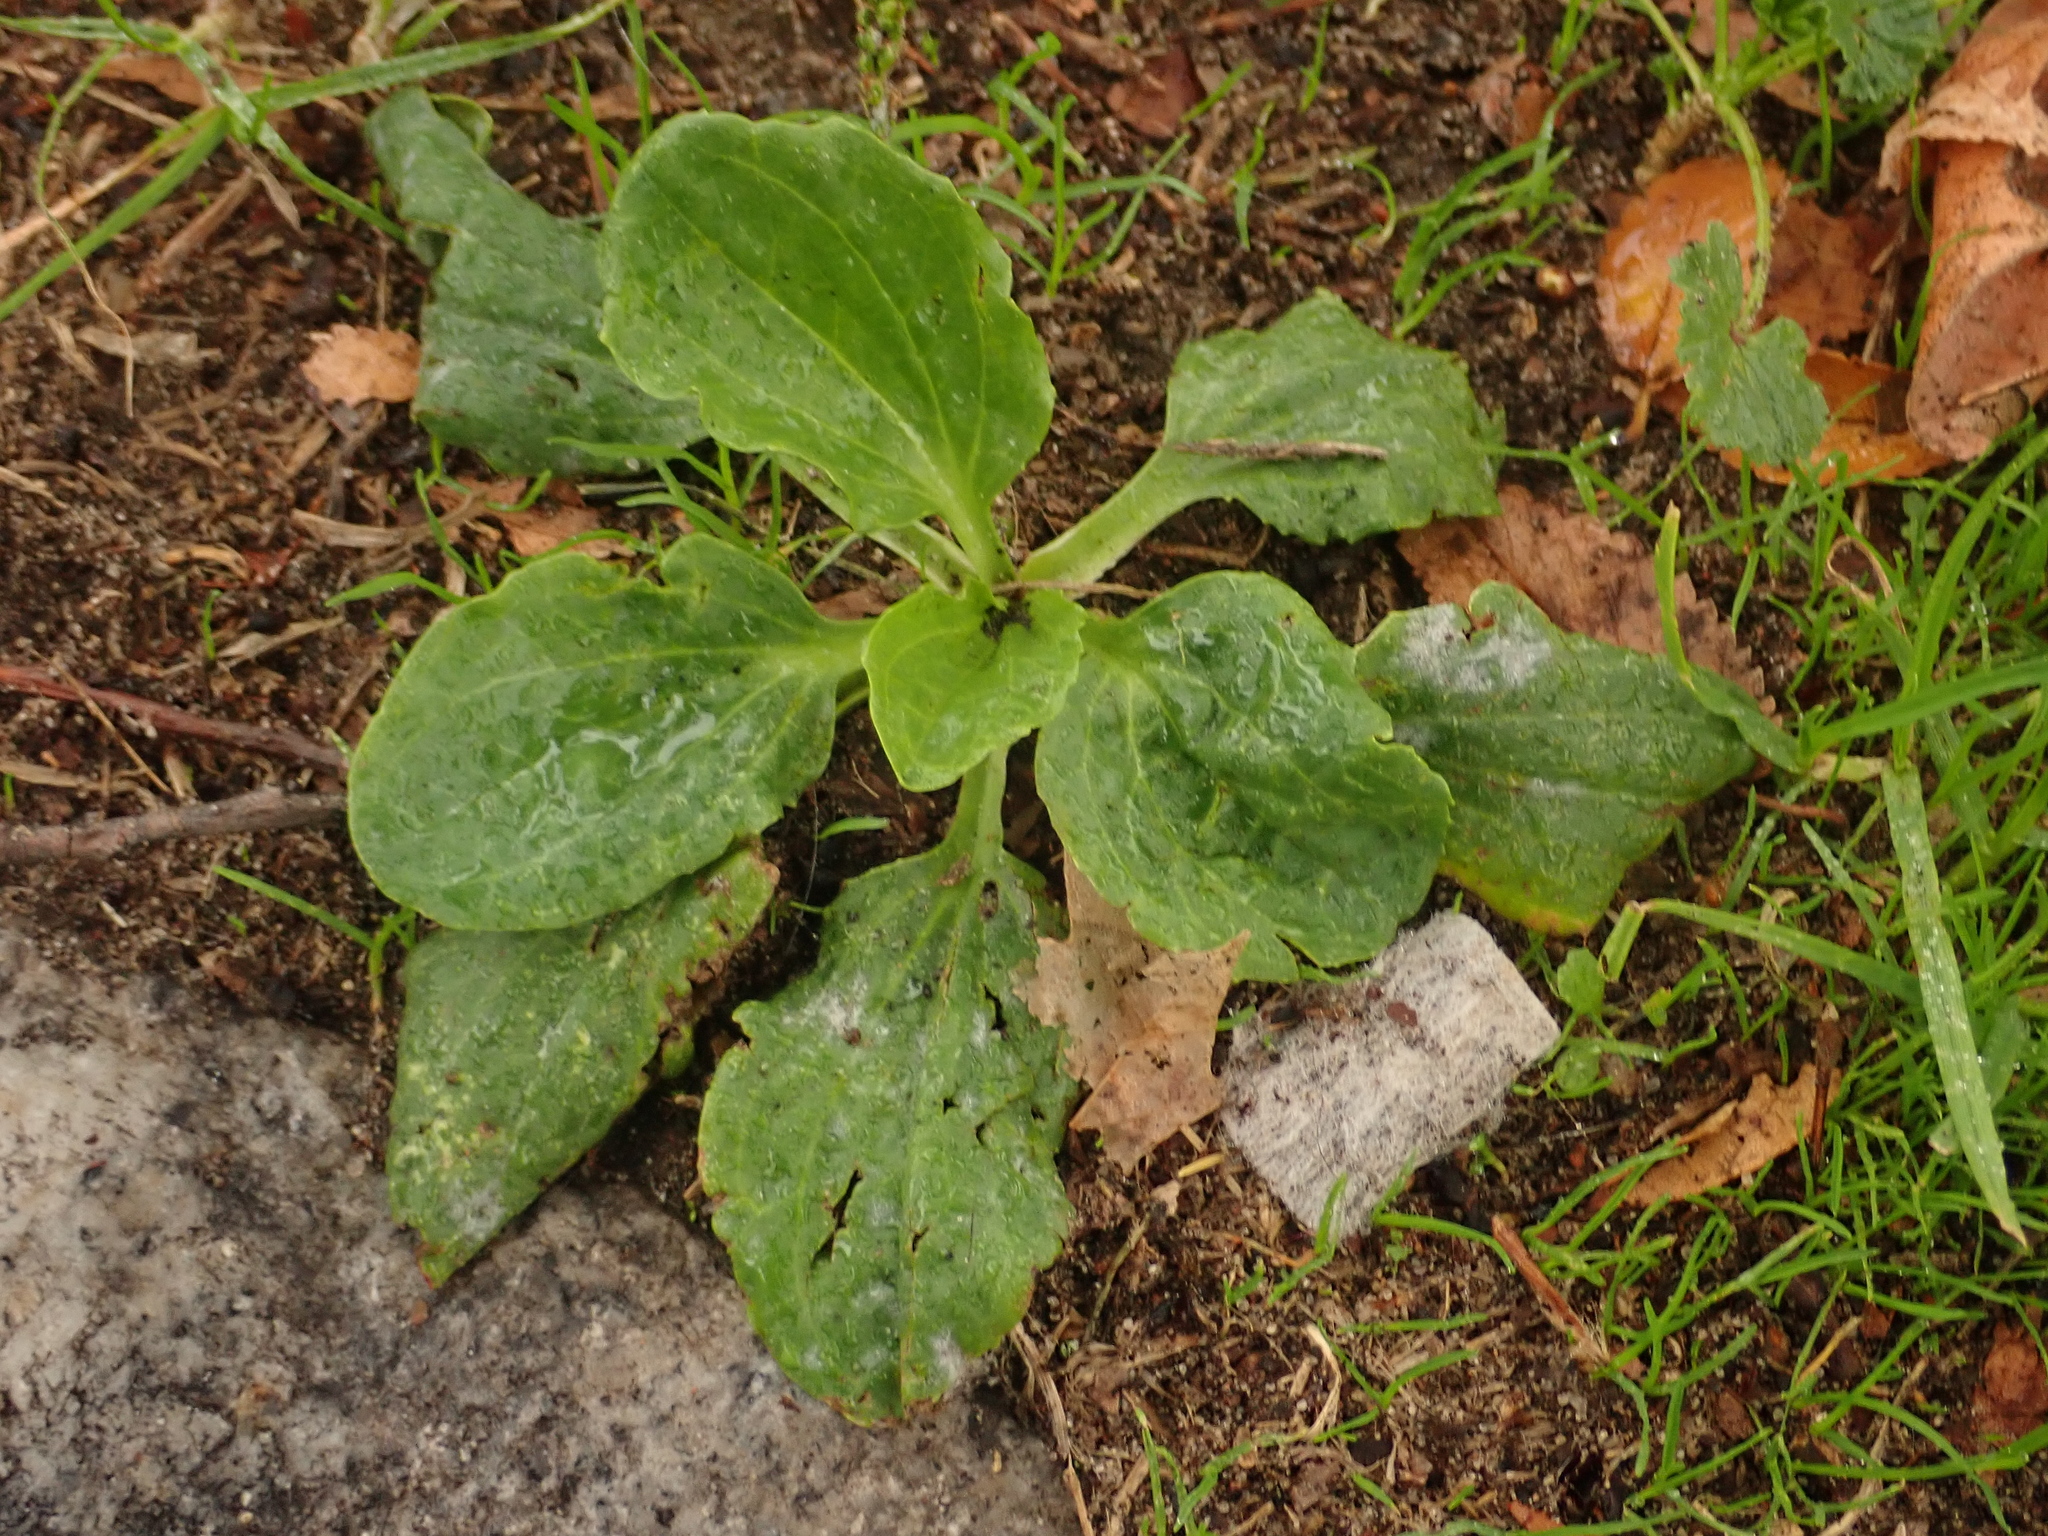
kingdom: Fungi
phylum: Ascomycota
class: Leotiomycetes
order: Helotiales
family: Erysiphaceae
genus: Golovinomyces
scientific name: Golovinomyces sordidus
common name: Plantain mildew
